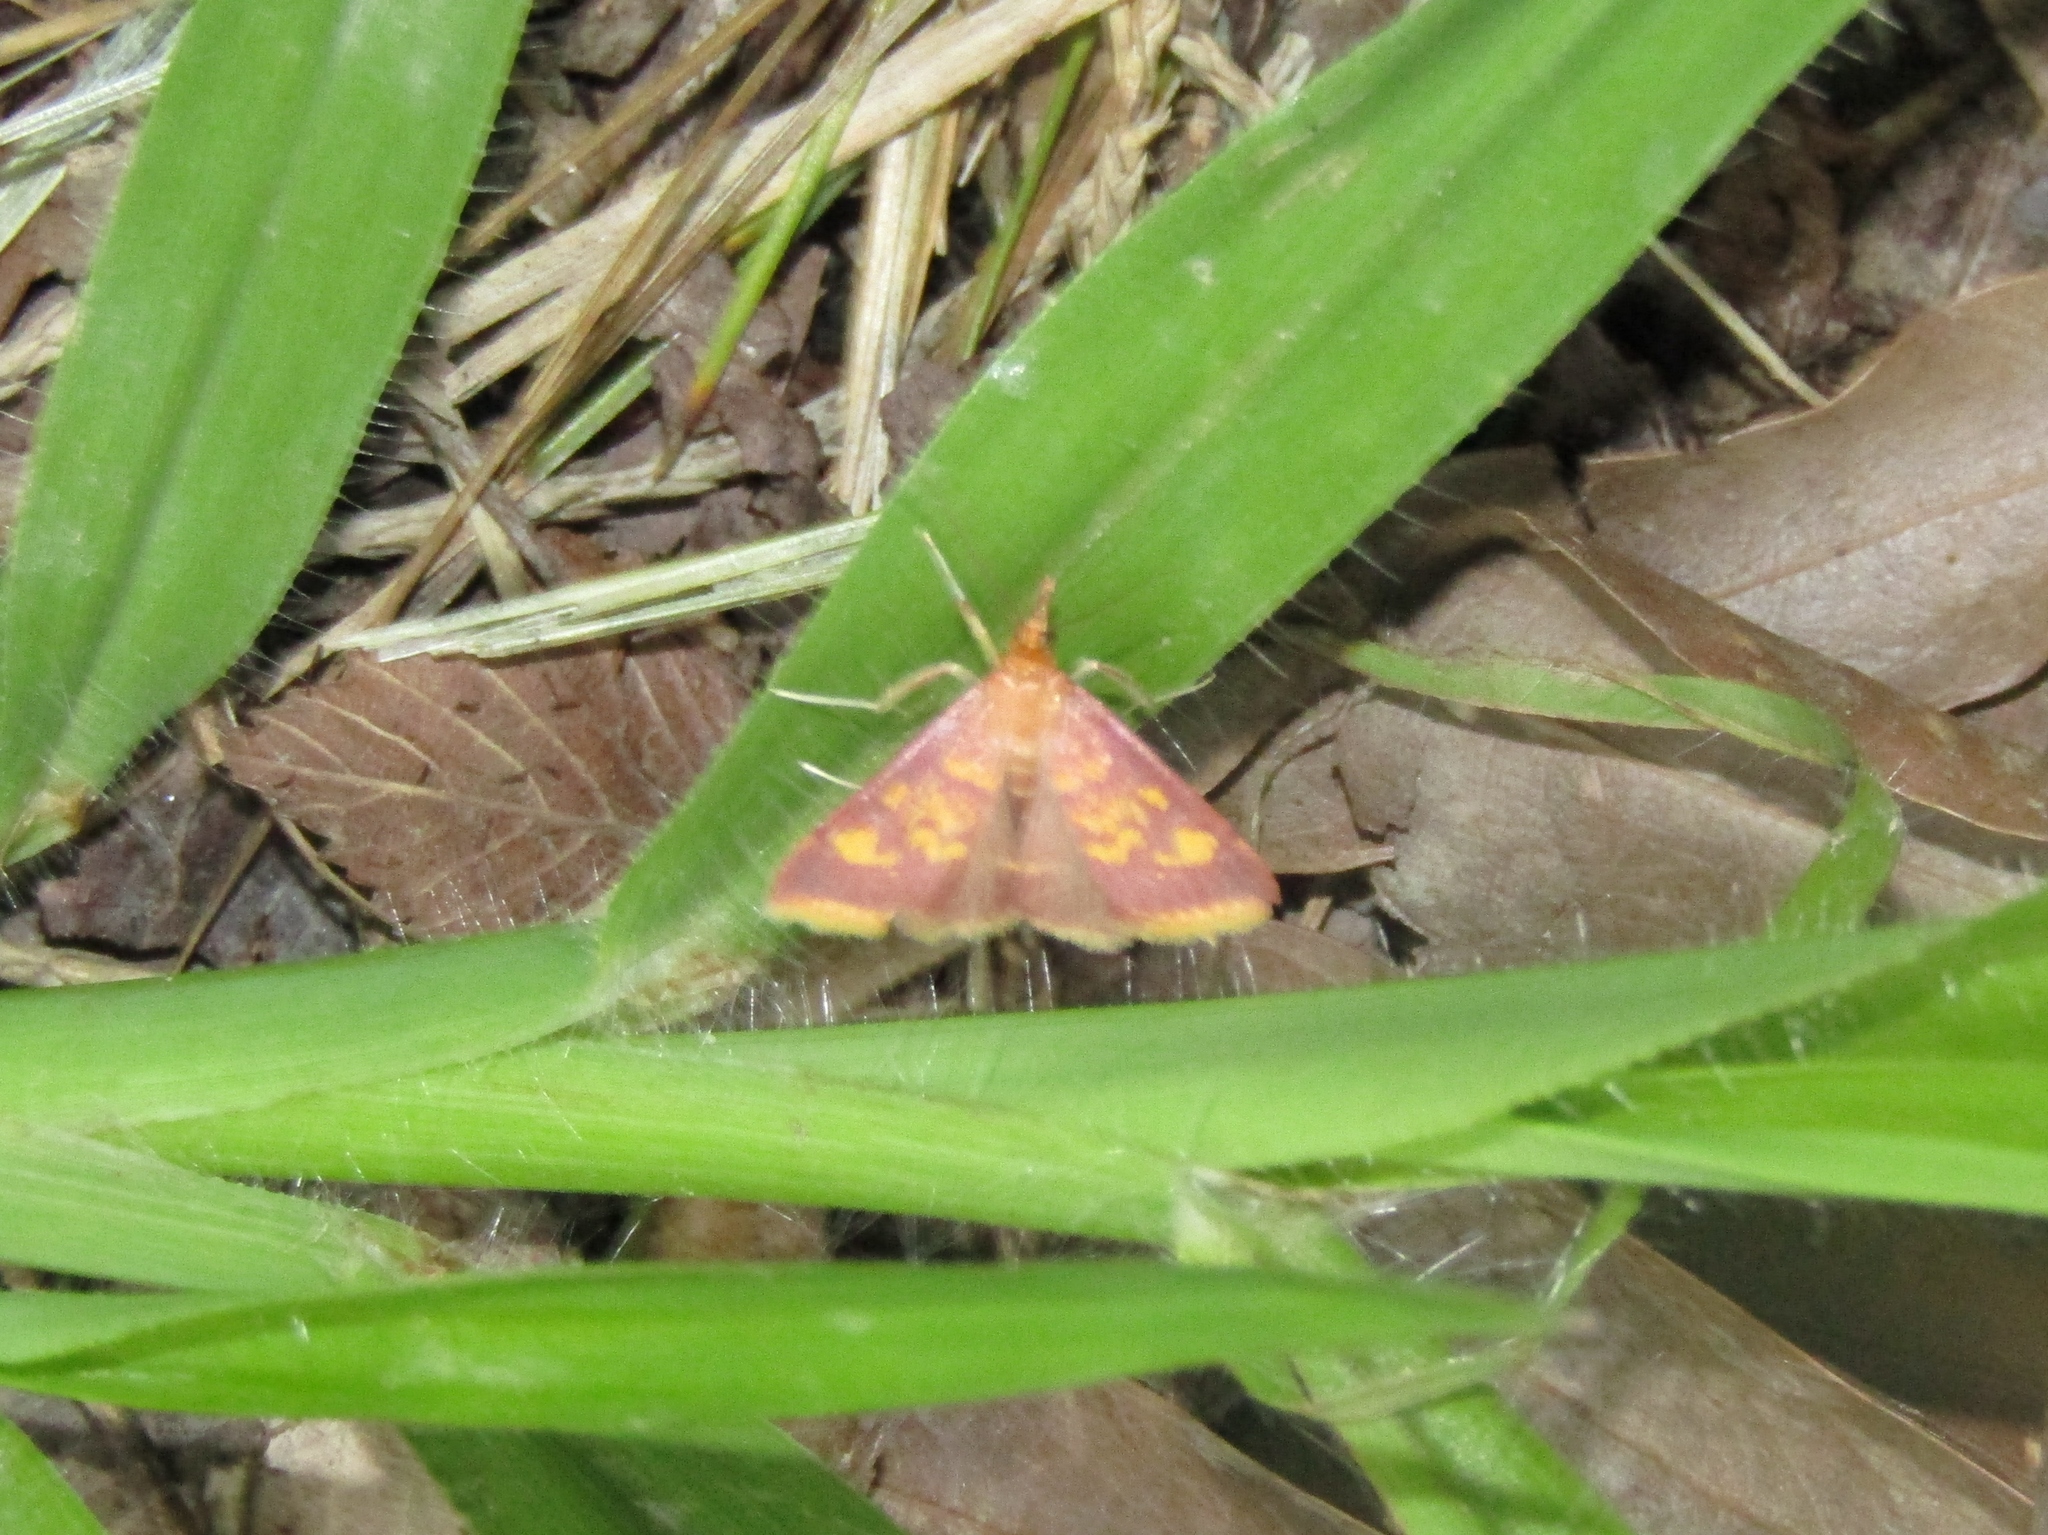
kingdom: Animalia
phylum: Arthropoda
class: Insecta
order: Lepidoptera
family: Crambidae
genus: Pyrausta
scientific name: Pyrausta acrionalis
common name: Mint-loving pyrausta moth
